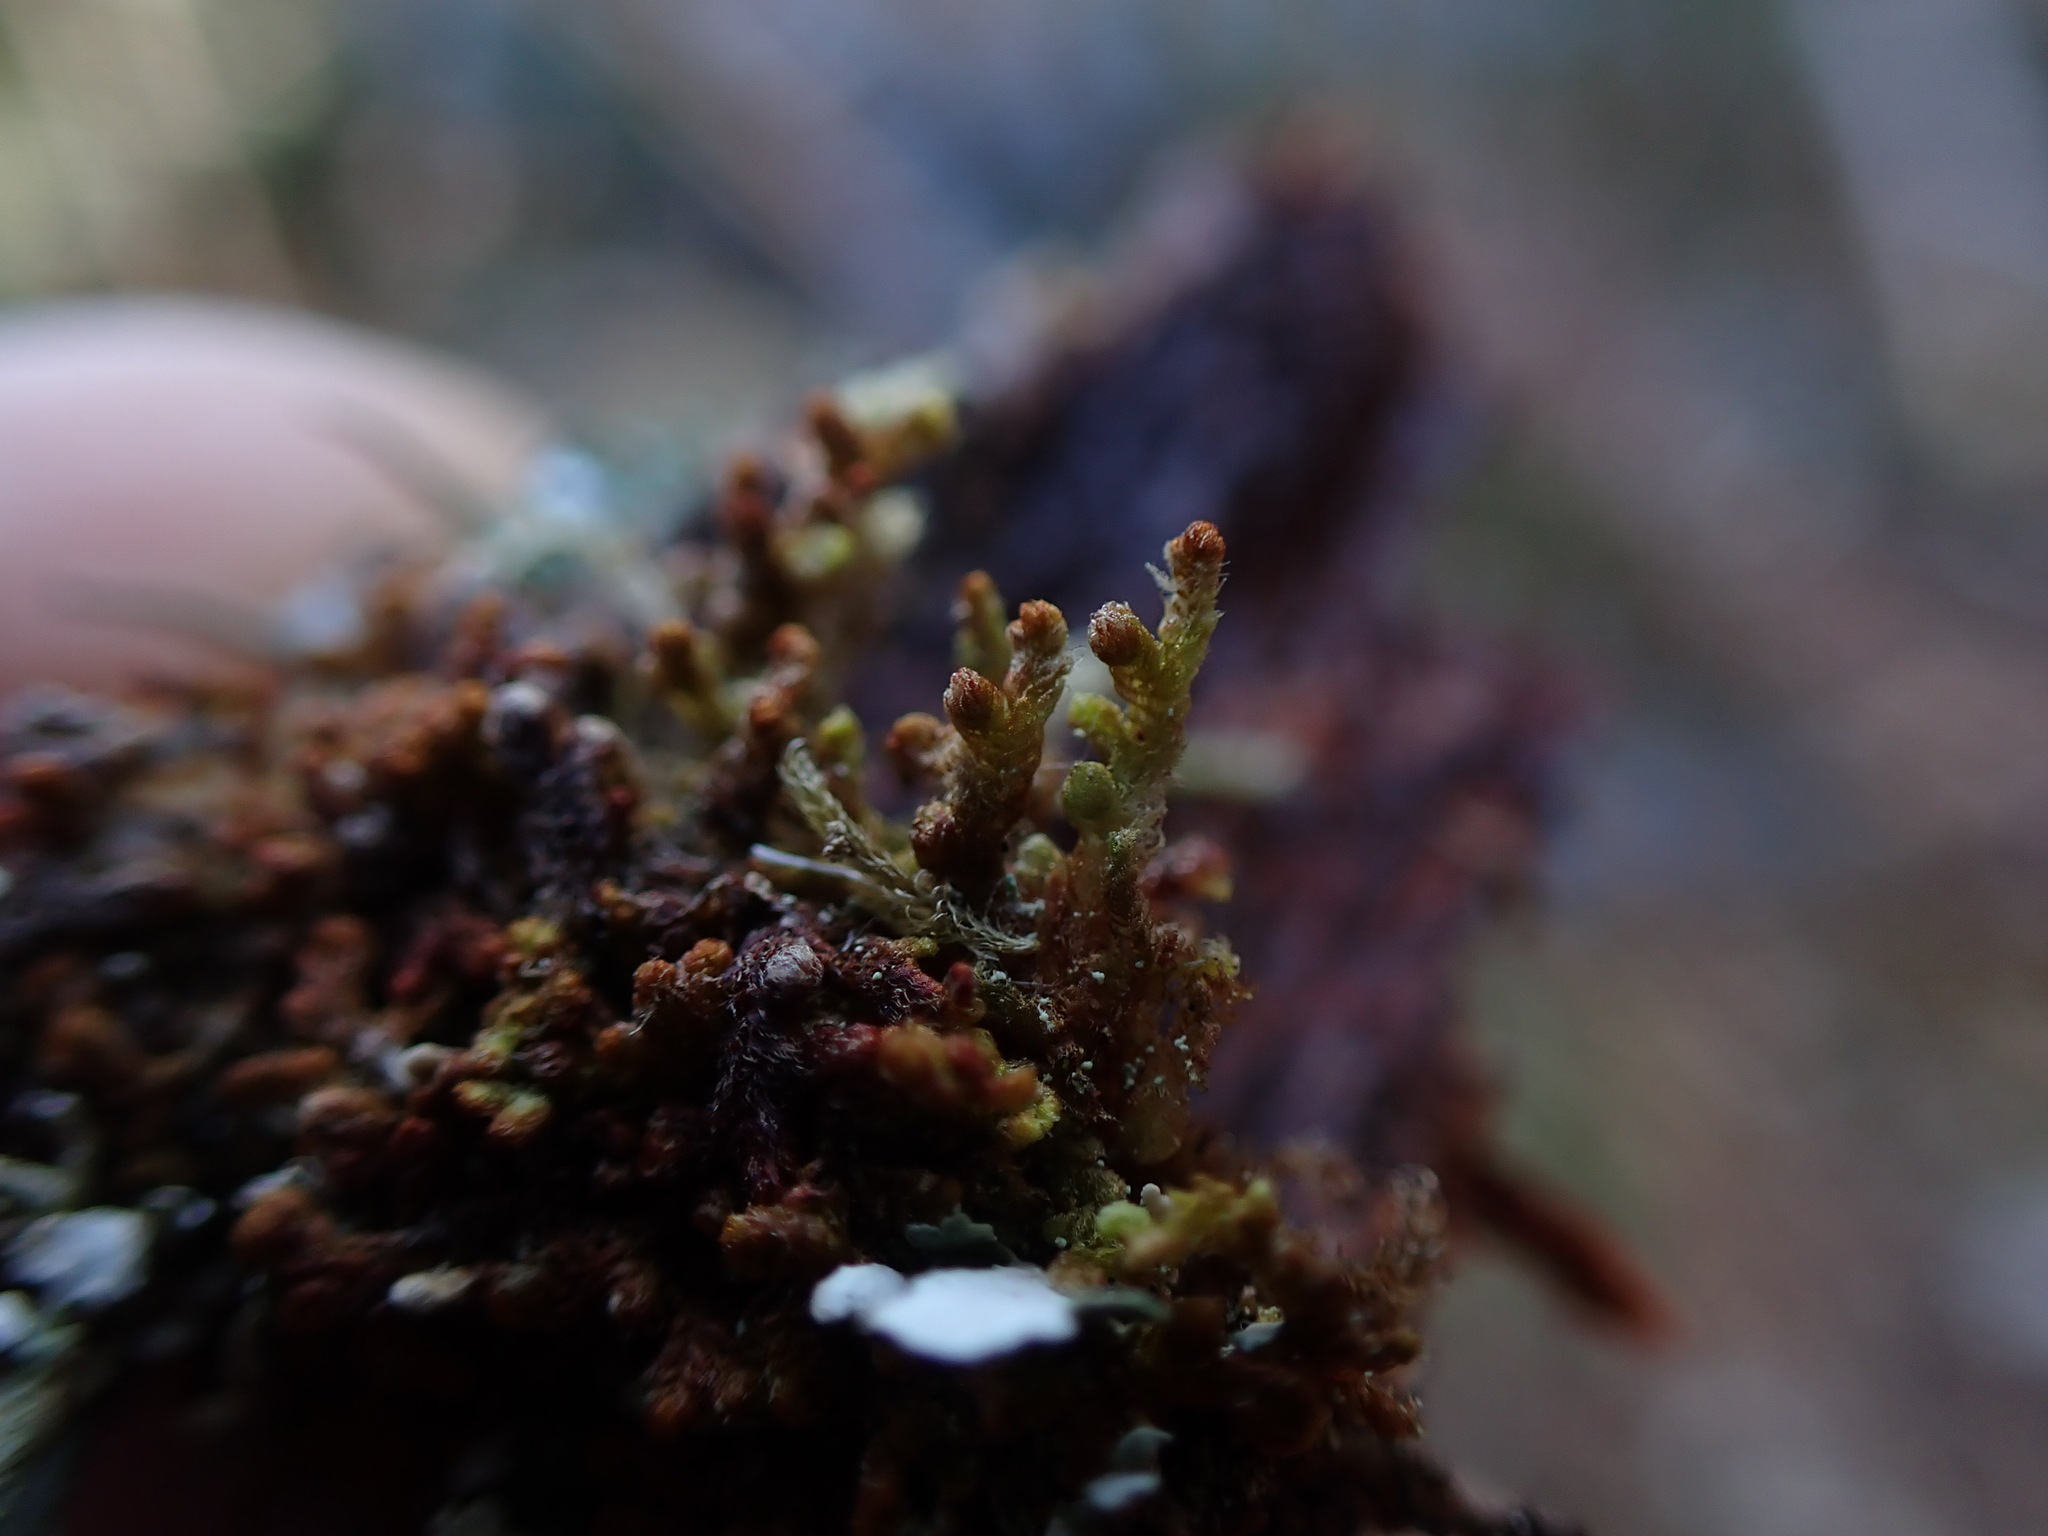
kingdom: Plantae
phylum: Marchantiophyta
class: Jungermanniopsida
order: Ptilidiales
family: Ptilidiaceae
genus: Ptilidium
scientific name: Ptilidium pulcherrimum
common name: Tree fringewort
